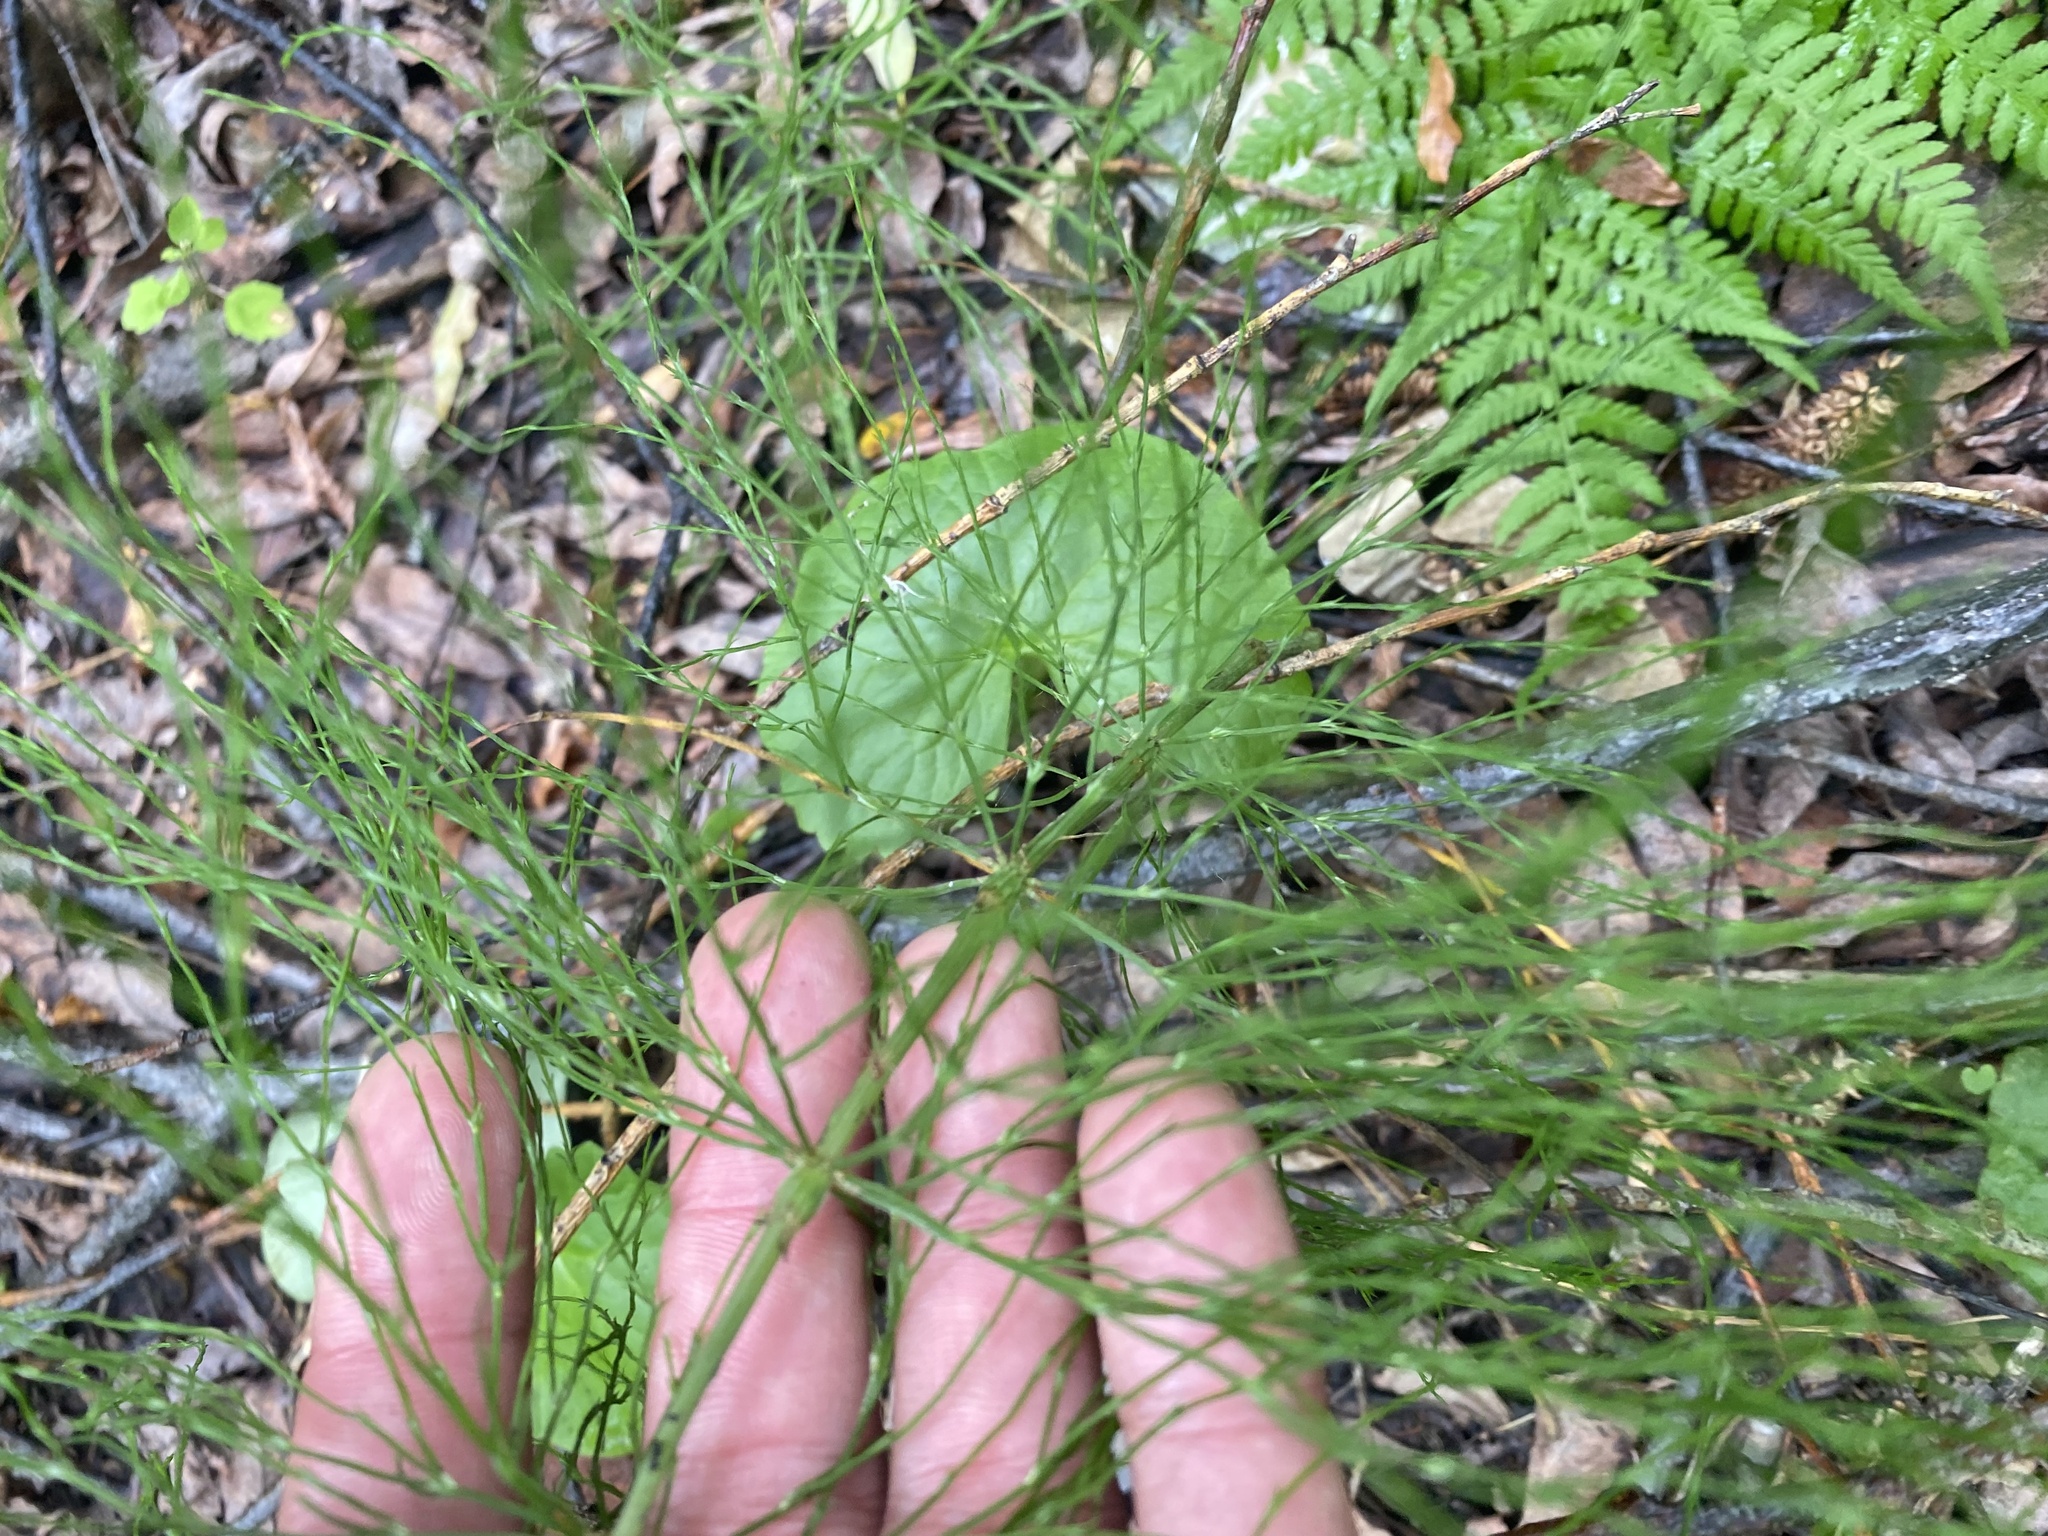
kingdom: Plantae
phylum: Tracheophyta
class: Polypodiopsida
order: Equisetales
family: Equisetaceae
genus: Equisetum
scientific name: Equisetum sylvaticum
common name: Wood horsetail
